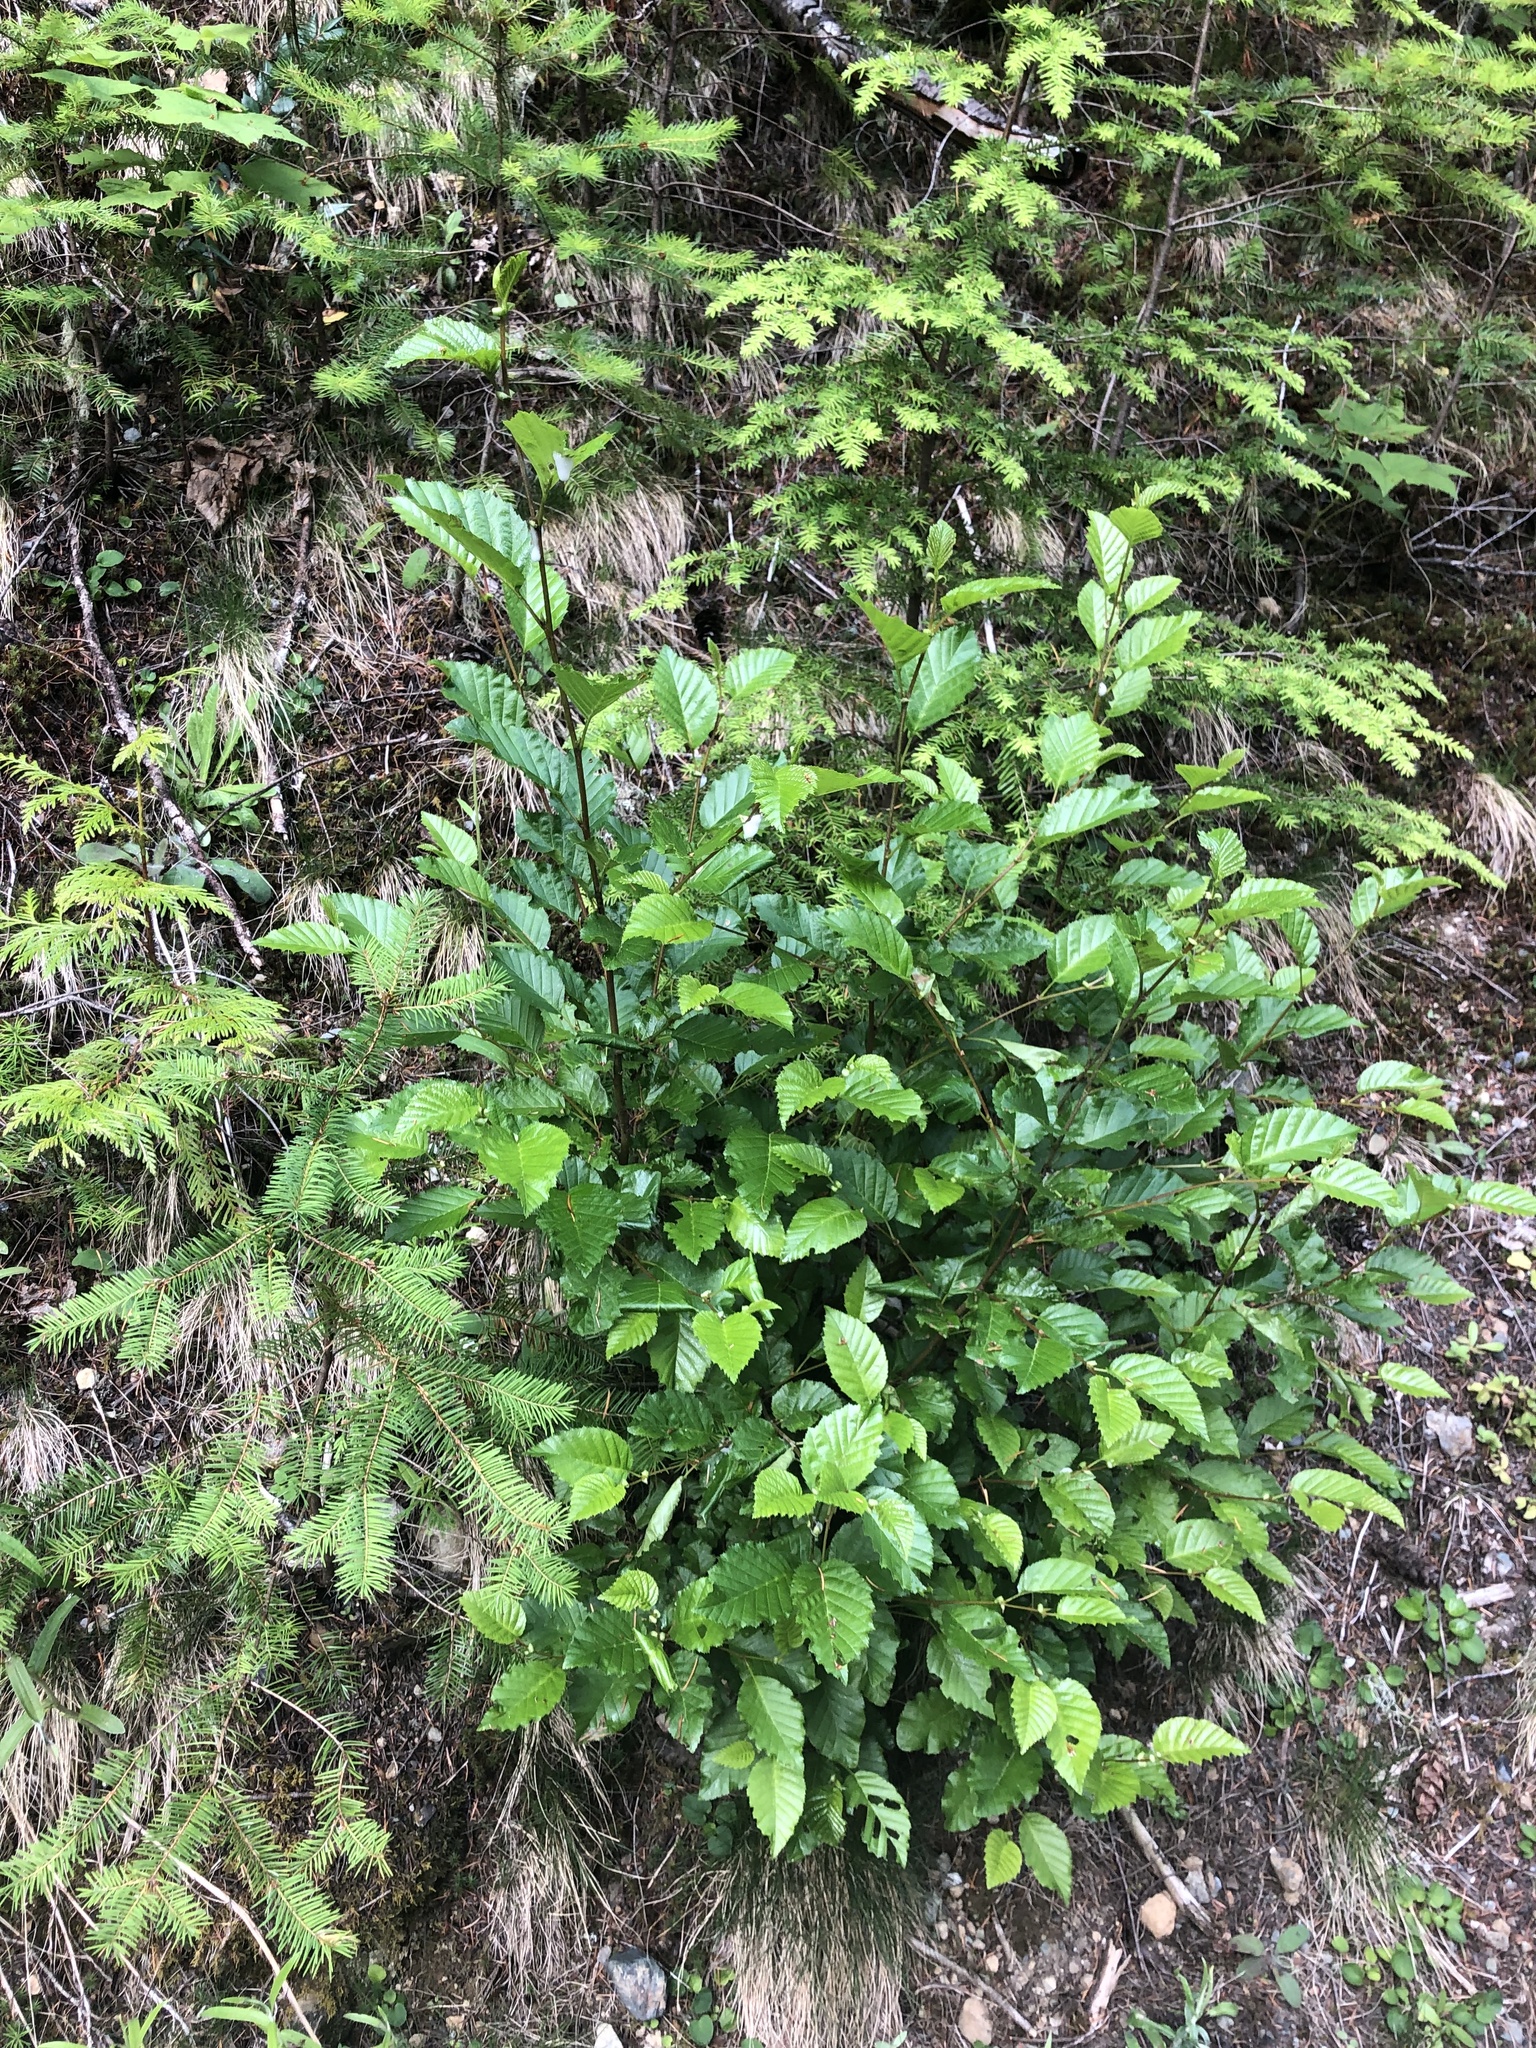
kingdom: Plantae
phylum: Tracheophyta
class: Magnoliopsida
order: Fagales
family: Betulaceae
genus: Alnus
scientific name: Alnus alnobetula
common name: Green alder
